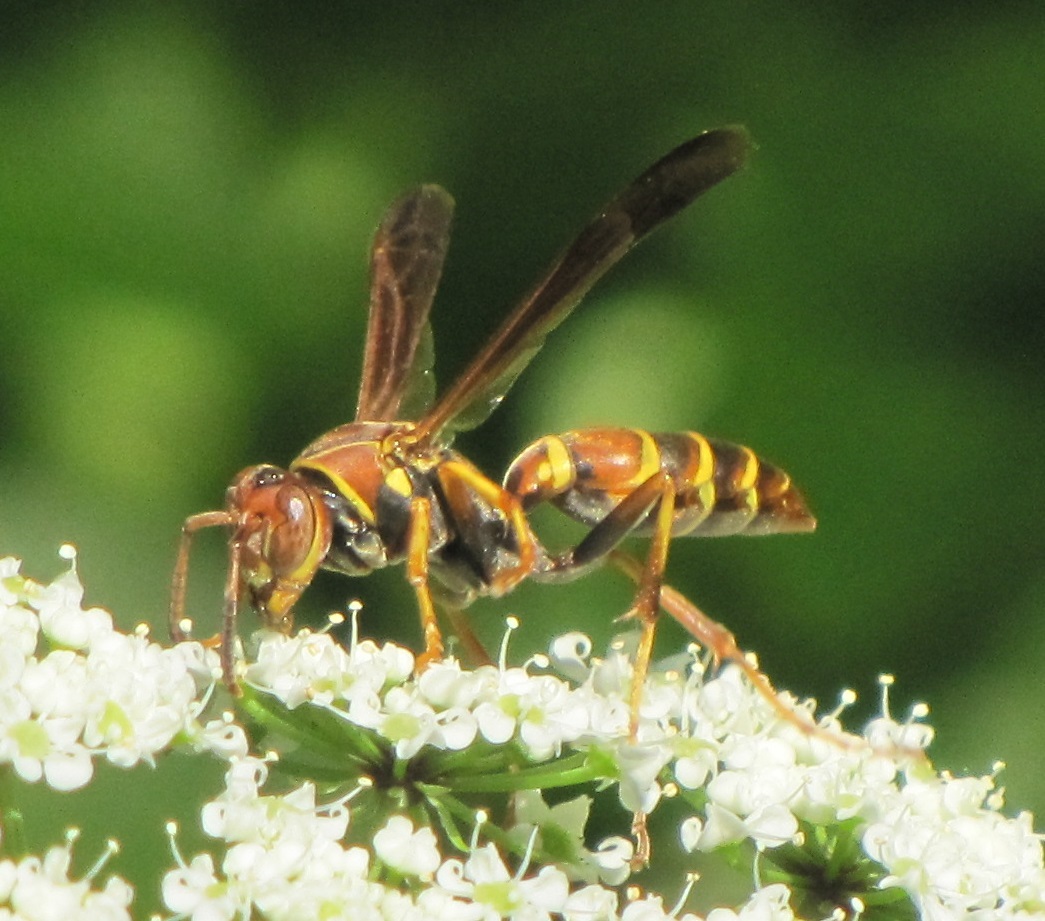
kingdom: Animalia
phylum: Arthropoda
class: Insecta
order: Hymenoptera
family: Eumenidae
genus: Polistes
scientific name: Polistes dorsalis
